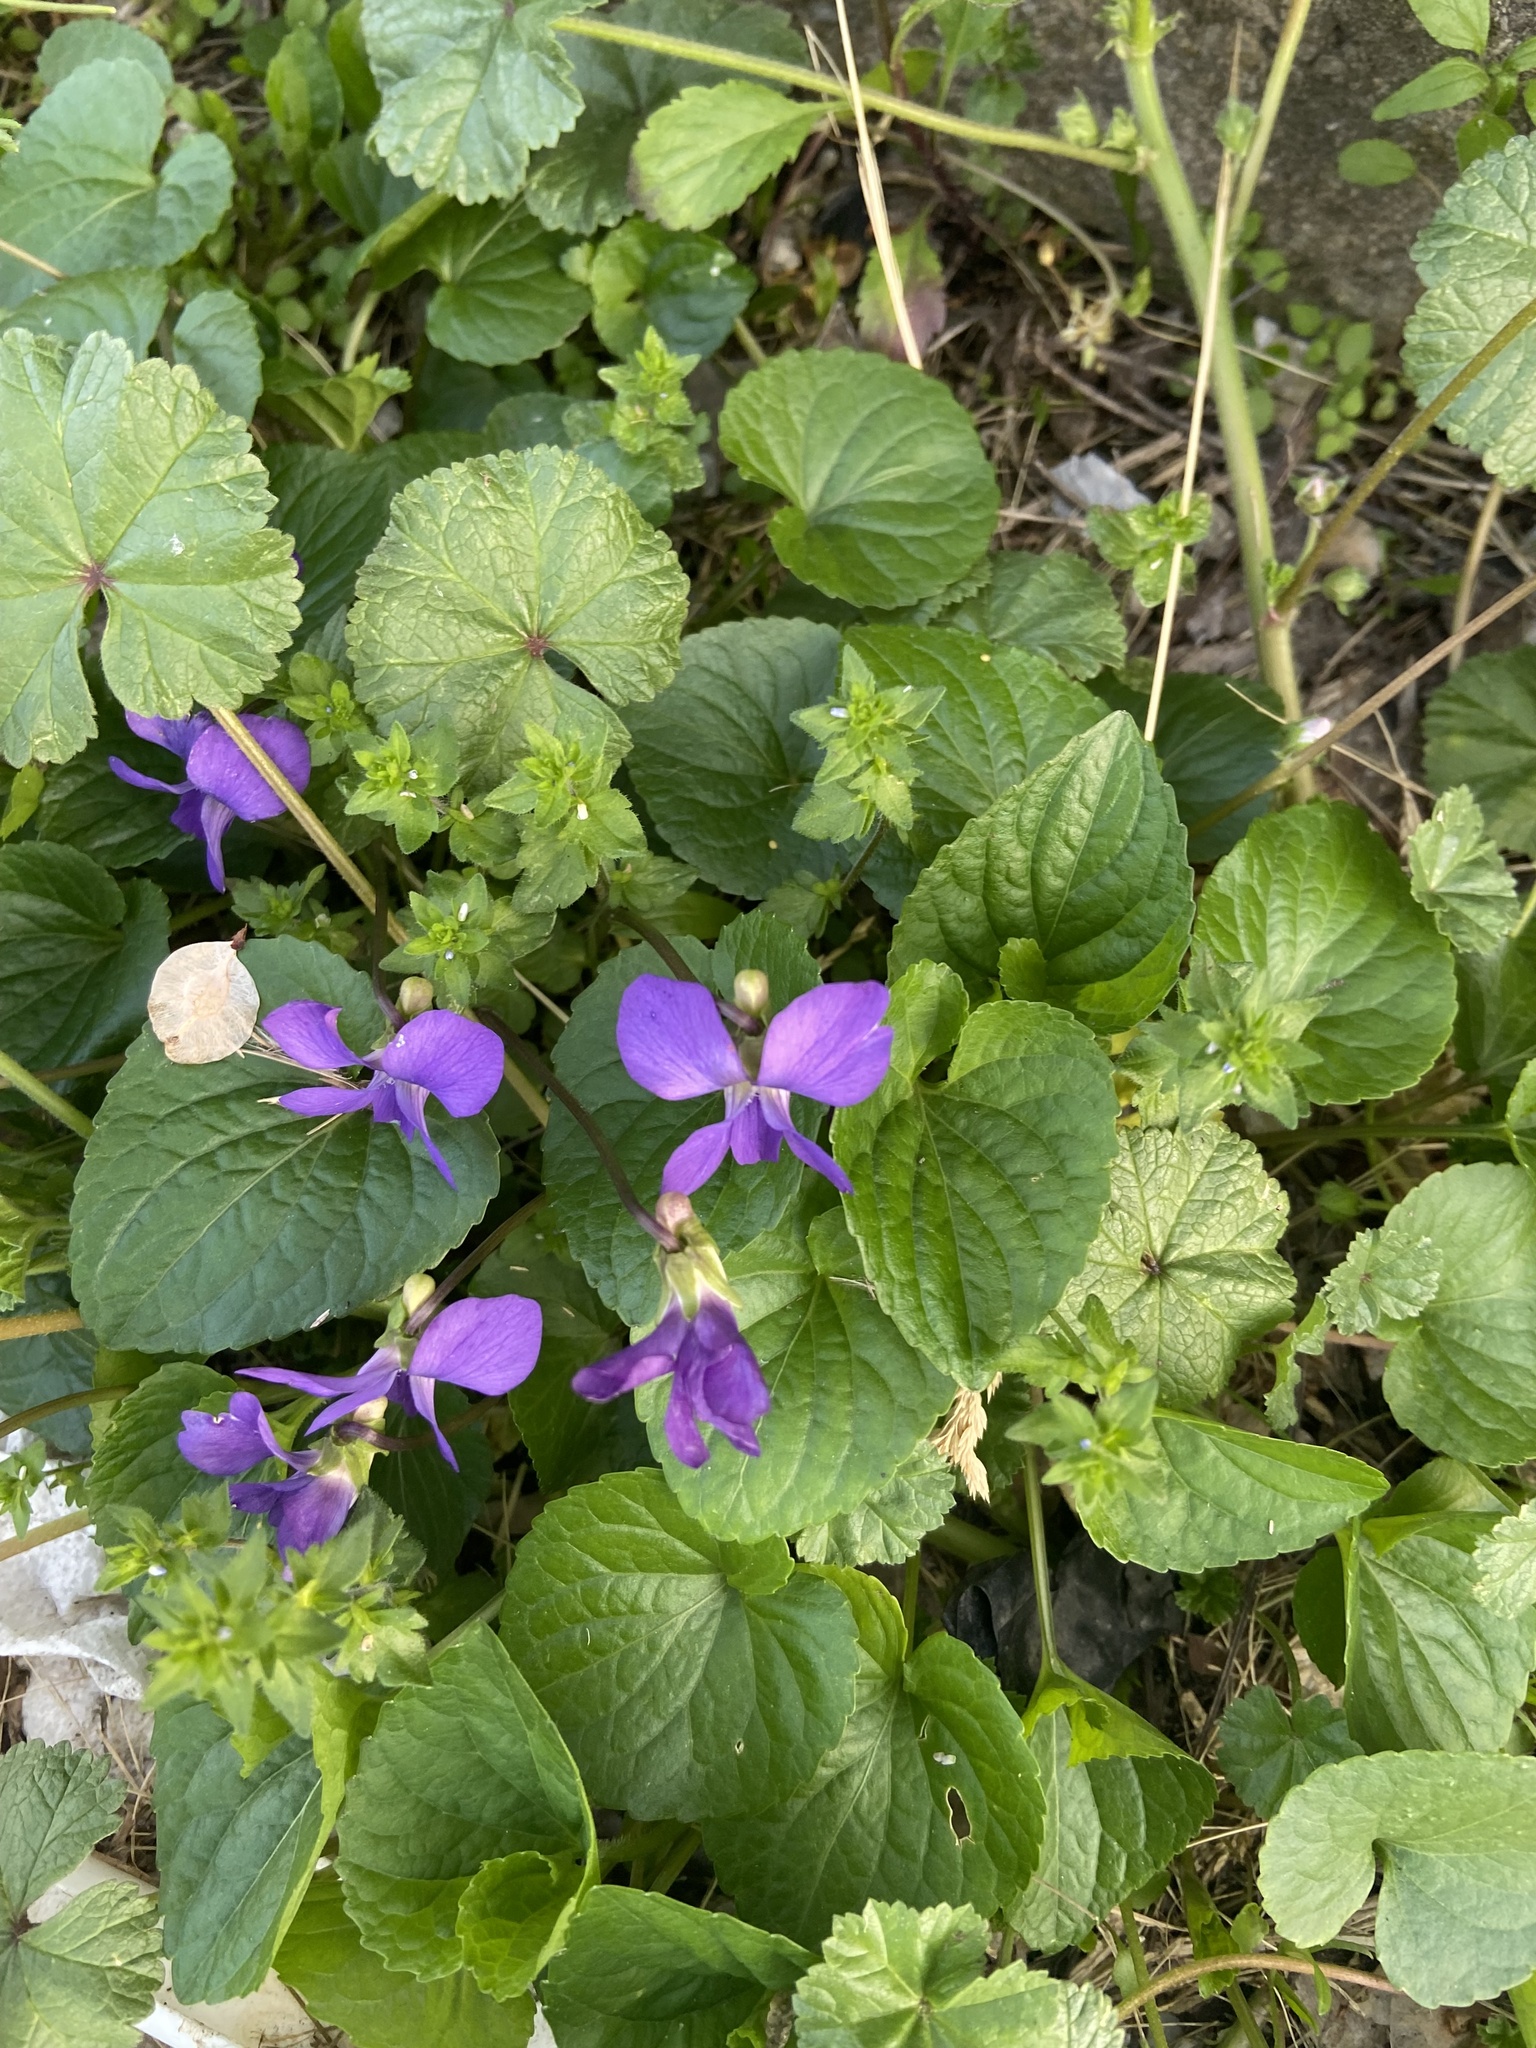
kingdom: Plantae
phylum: Tracheophyta
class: Magnoliopsida
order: Malpighiales
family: Violaceae
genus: Viola
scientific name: Viola sororia
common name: Dooryard violet
